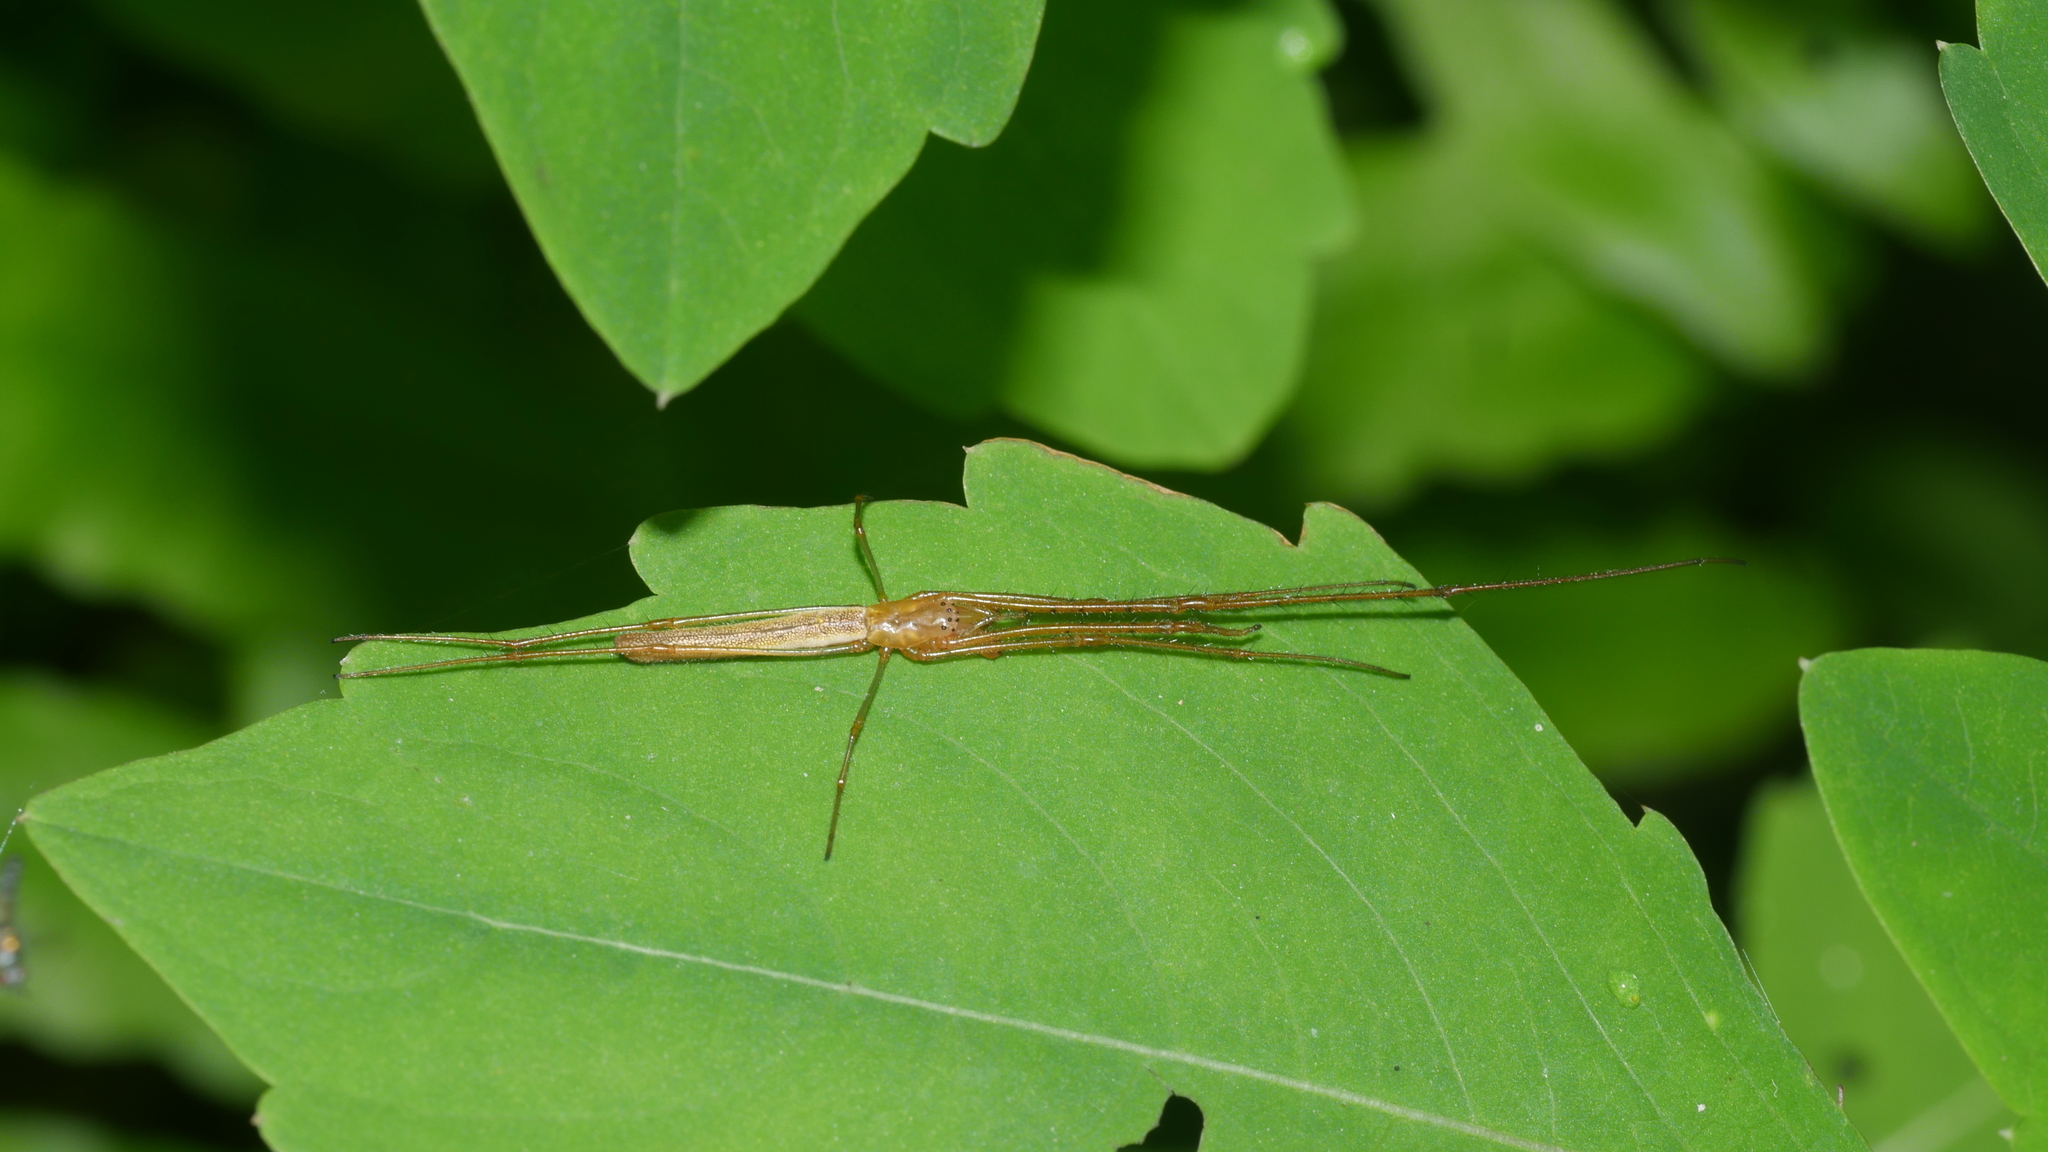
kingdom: Animalia
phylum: Arthropoda
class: Arachnida
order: Araneae
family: Tetragnathidae
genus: Tetragnatha
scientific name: Tetragnatha
